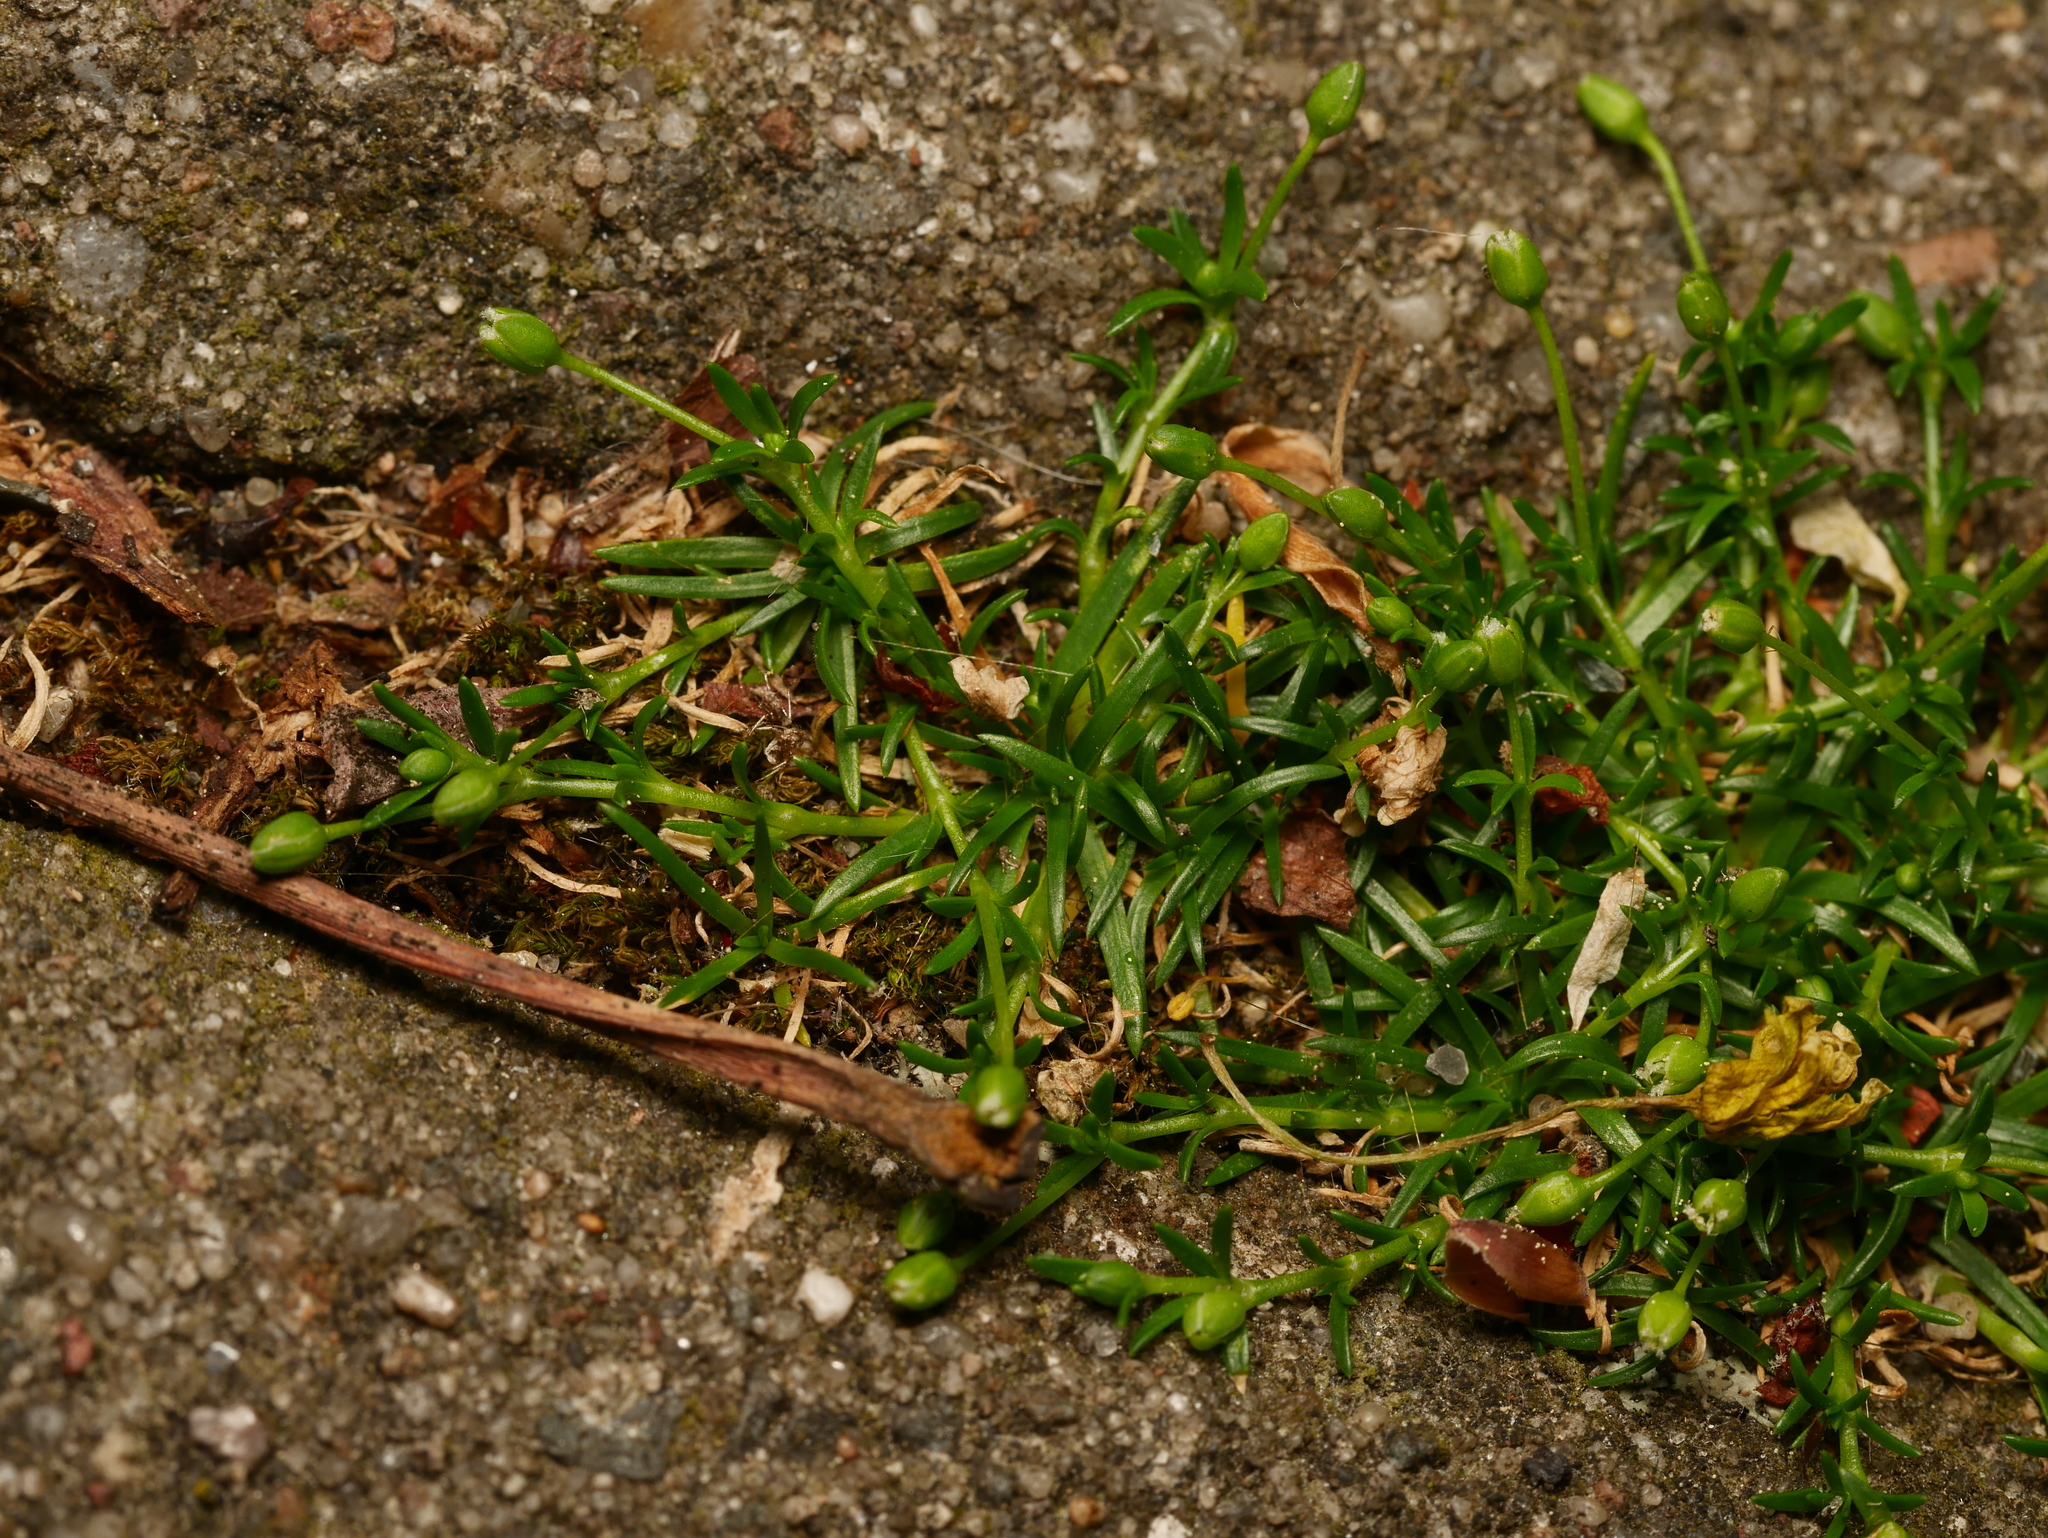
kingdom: Plantae
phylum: Tracheophyta
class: Magnoliopsida
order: Caryophyllales
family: Caryophyllaceae
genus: Sagina
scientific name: Sagina procumbens
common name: Procumbent pearlwort
